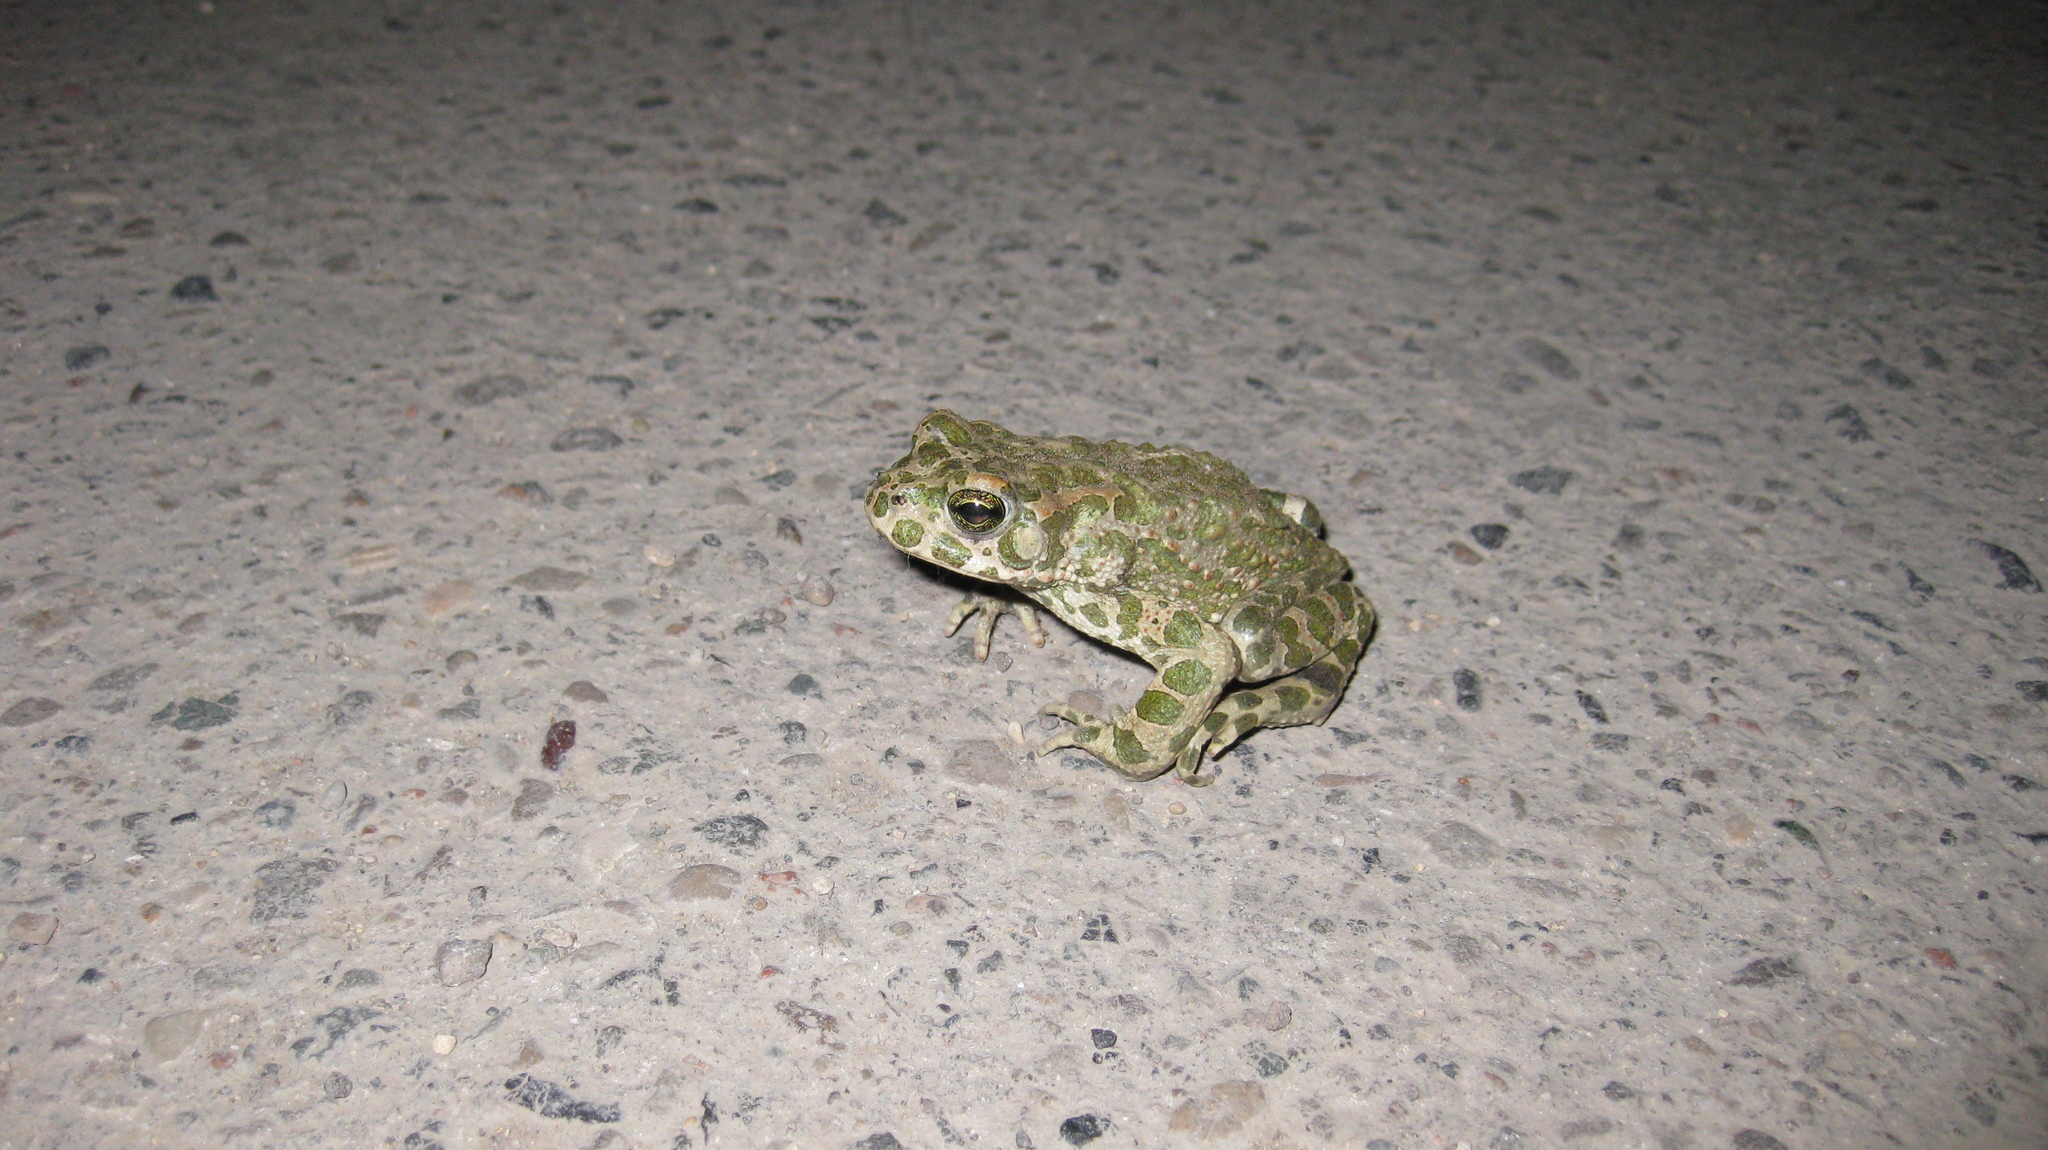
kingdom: Animalia
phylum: Chordata
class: Amphibia
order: Anura
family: Bufonidae
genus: Bufotes
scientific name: Bufotes viridis
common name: European green toad
